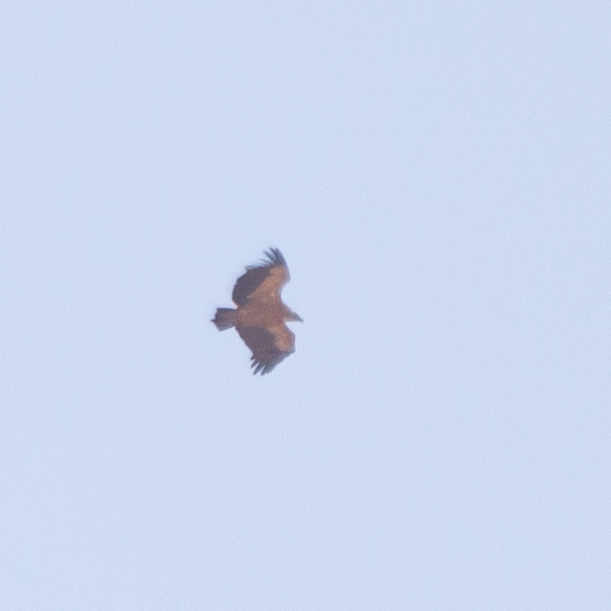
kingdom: Animalia
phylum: Chordata
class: Aves
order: Accipitriformes
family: Accipitridae
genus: Gyps
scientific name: Gyps fulvus
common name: Griffon vulture
